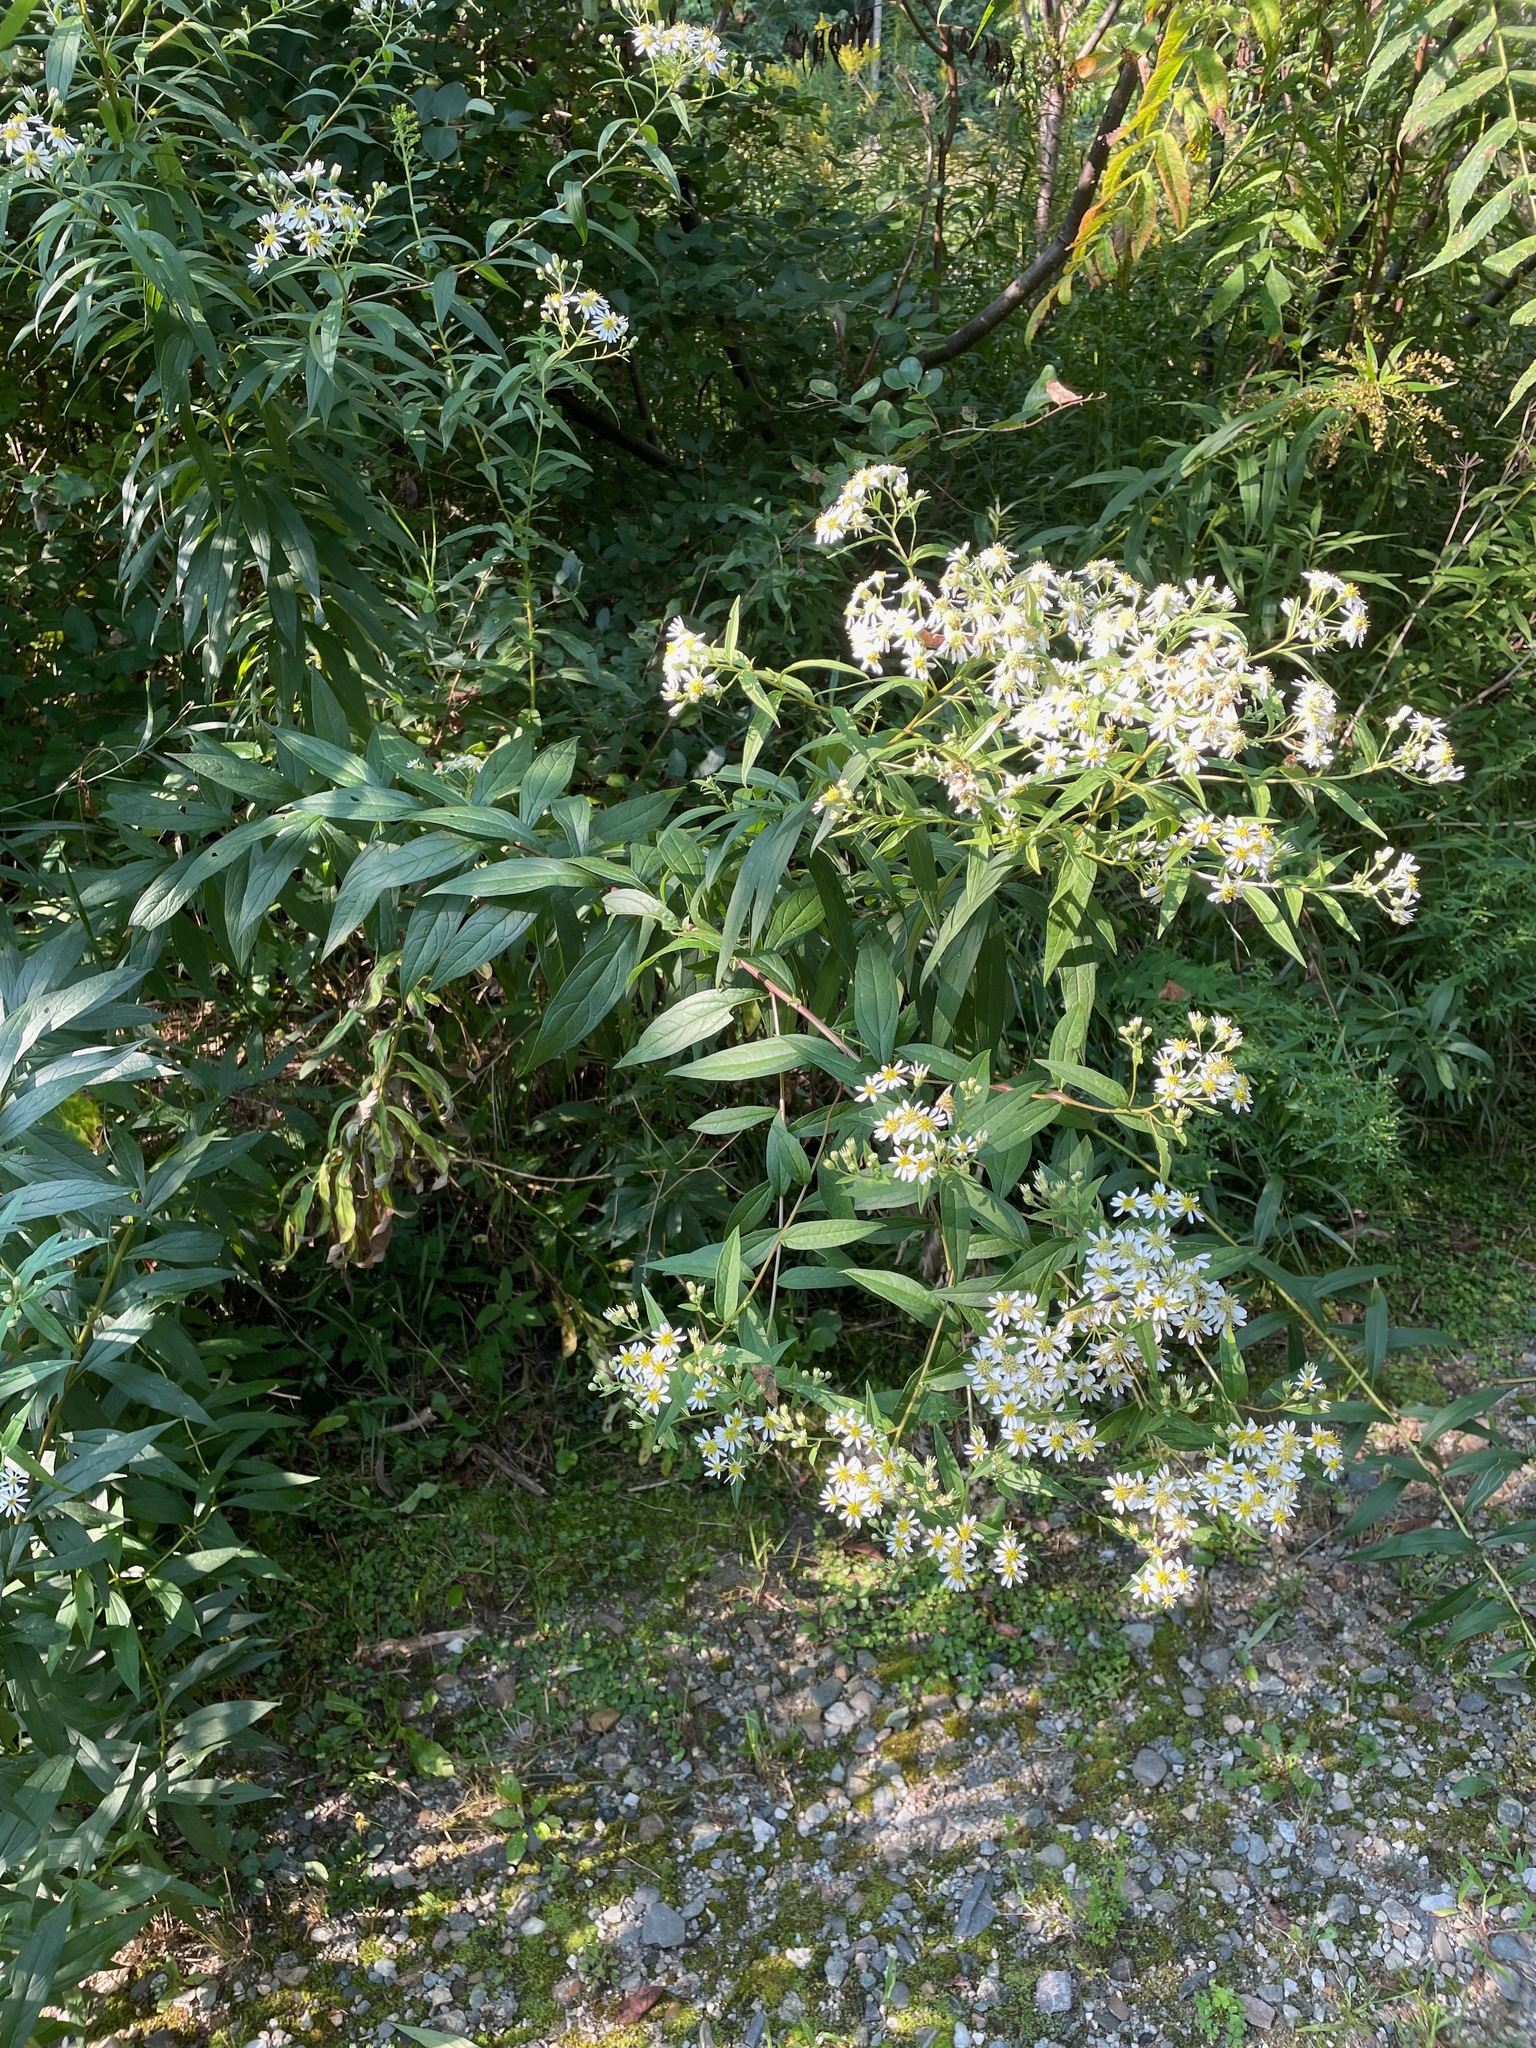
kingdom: Plantae
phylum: Tracheophyta
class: Magnoliopsida
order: Asterales
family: Asteraceae
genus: Doellingeria
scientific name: Doellingeria umbellata
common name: Flat-top white aster
